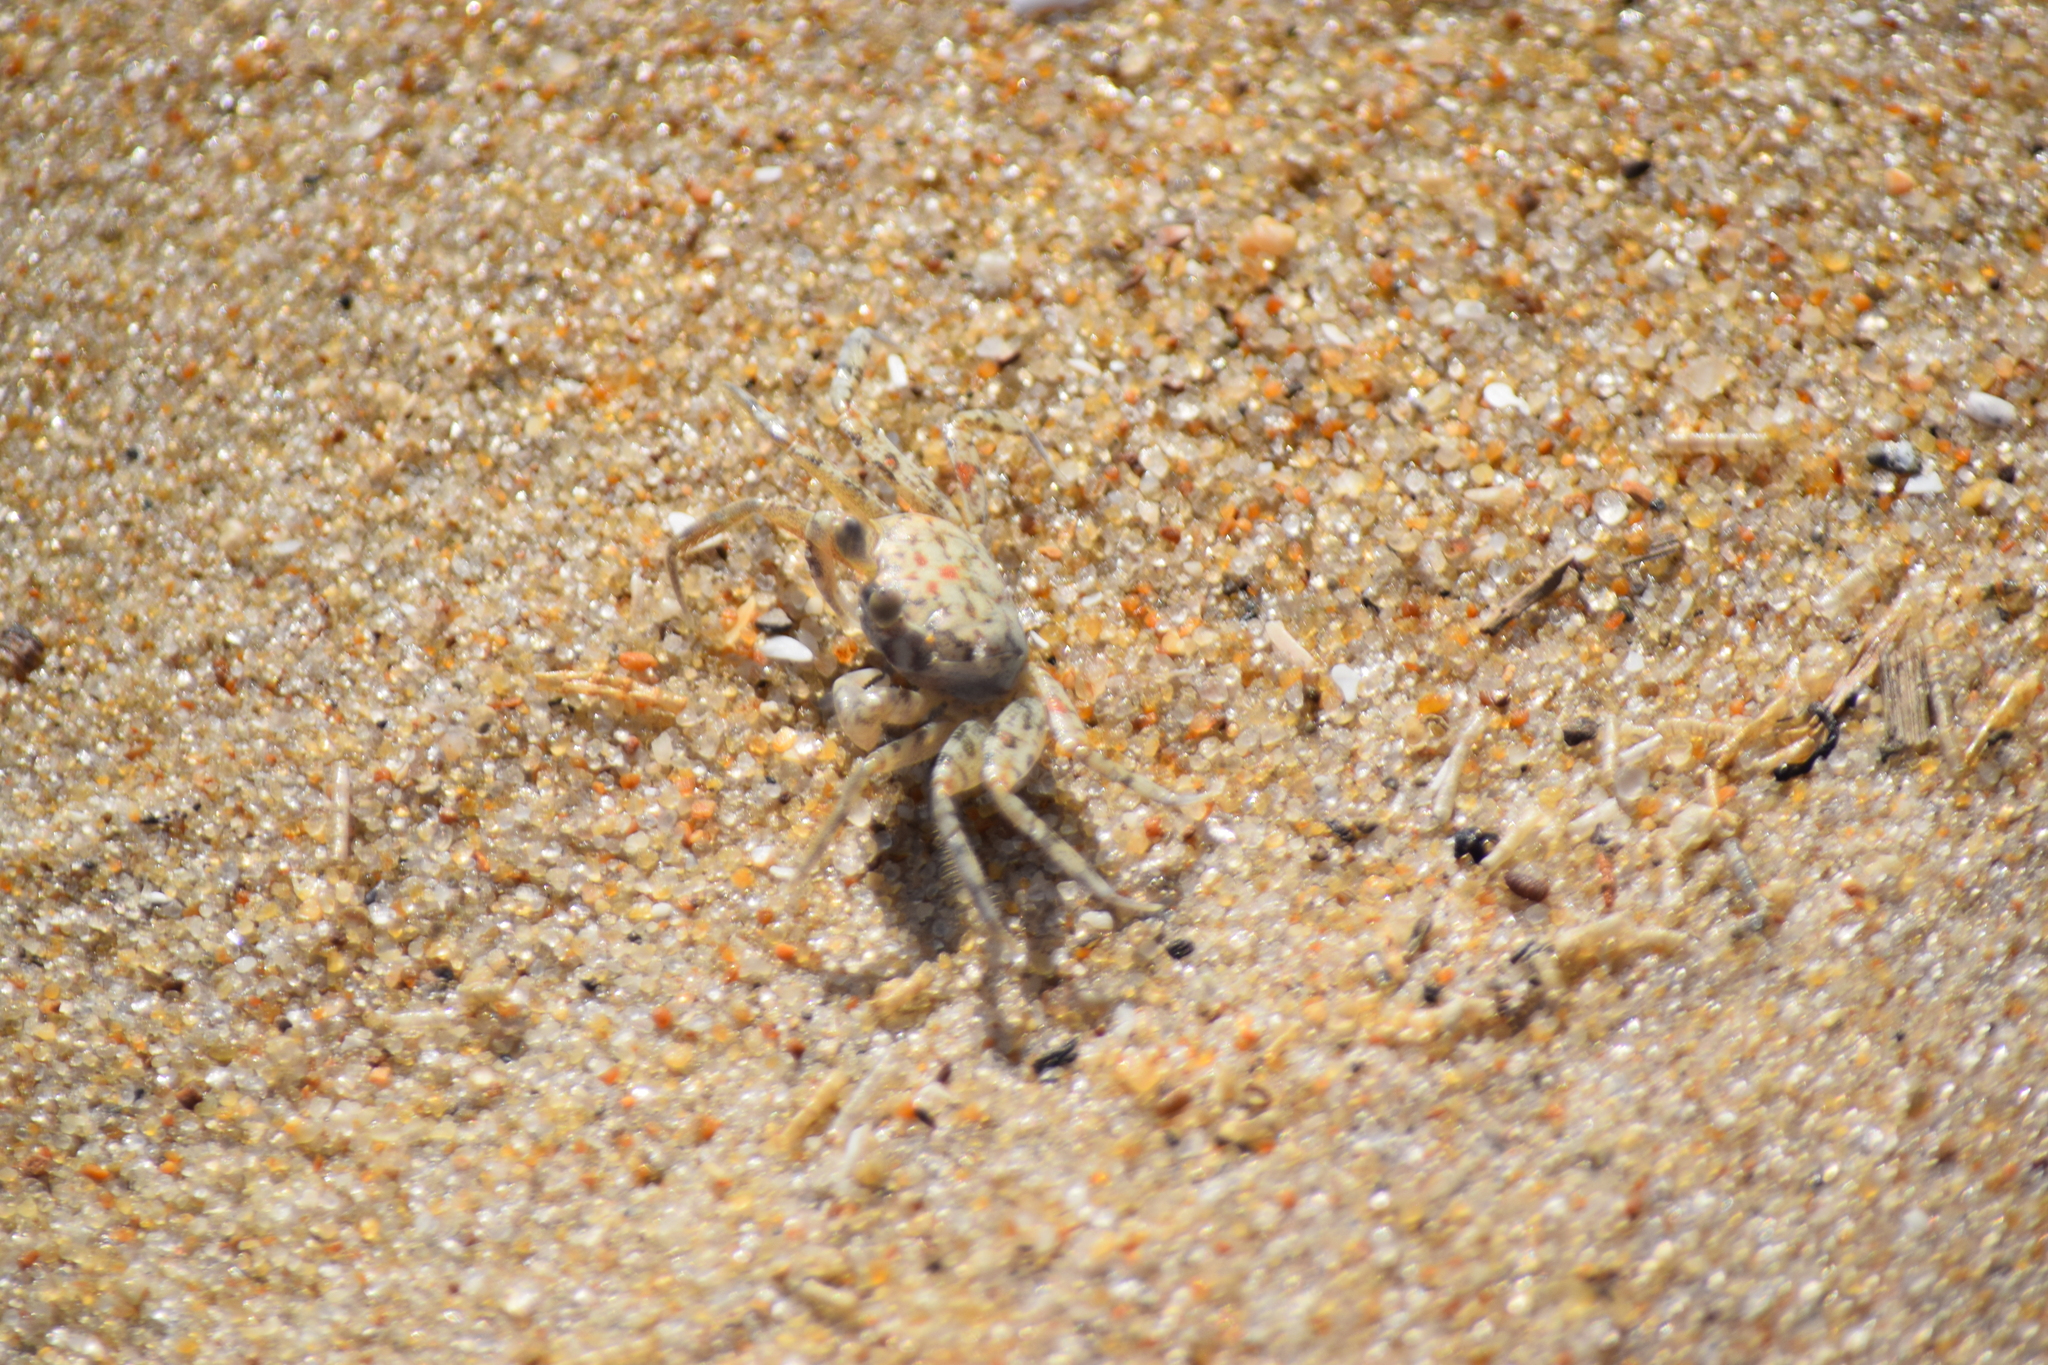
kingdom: Animalia
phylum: Arthropoda
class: Malacostraca
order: Decapoda
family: Ocypodidae
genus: Ocypode
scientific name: Ocypode quadrata
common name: Ghost crab
